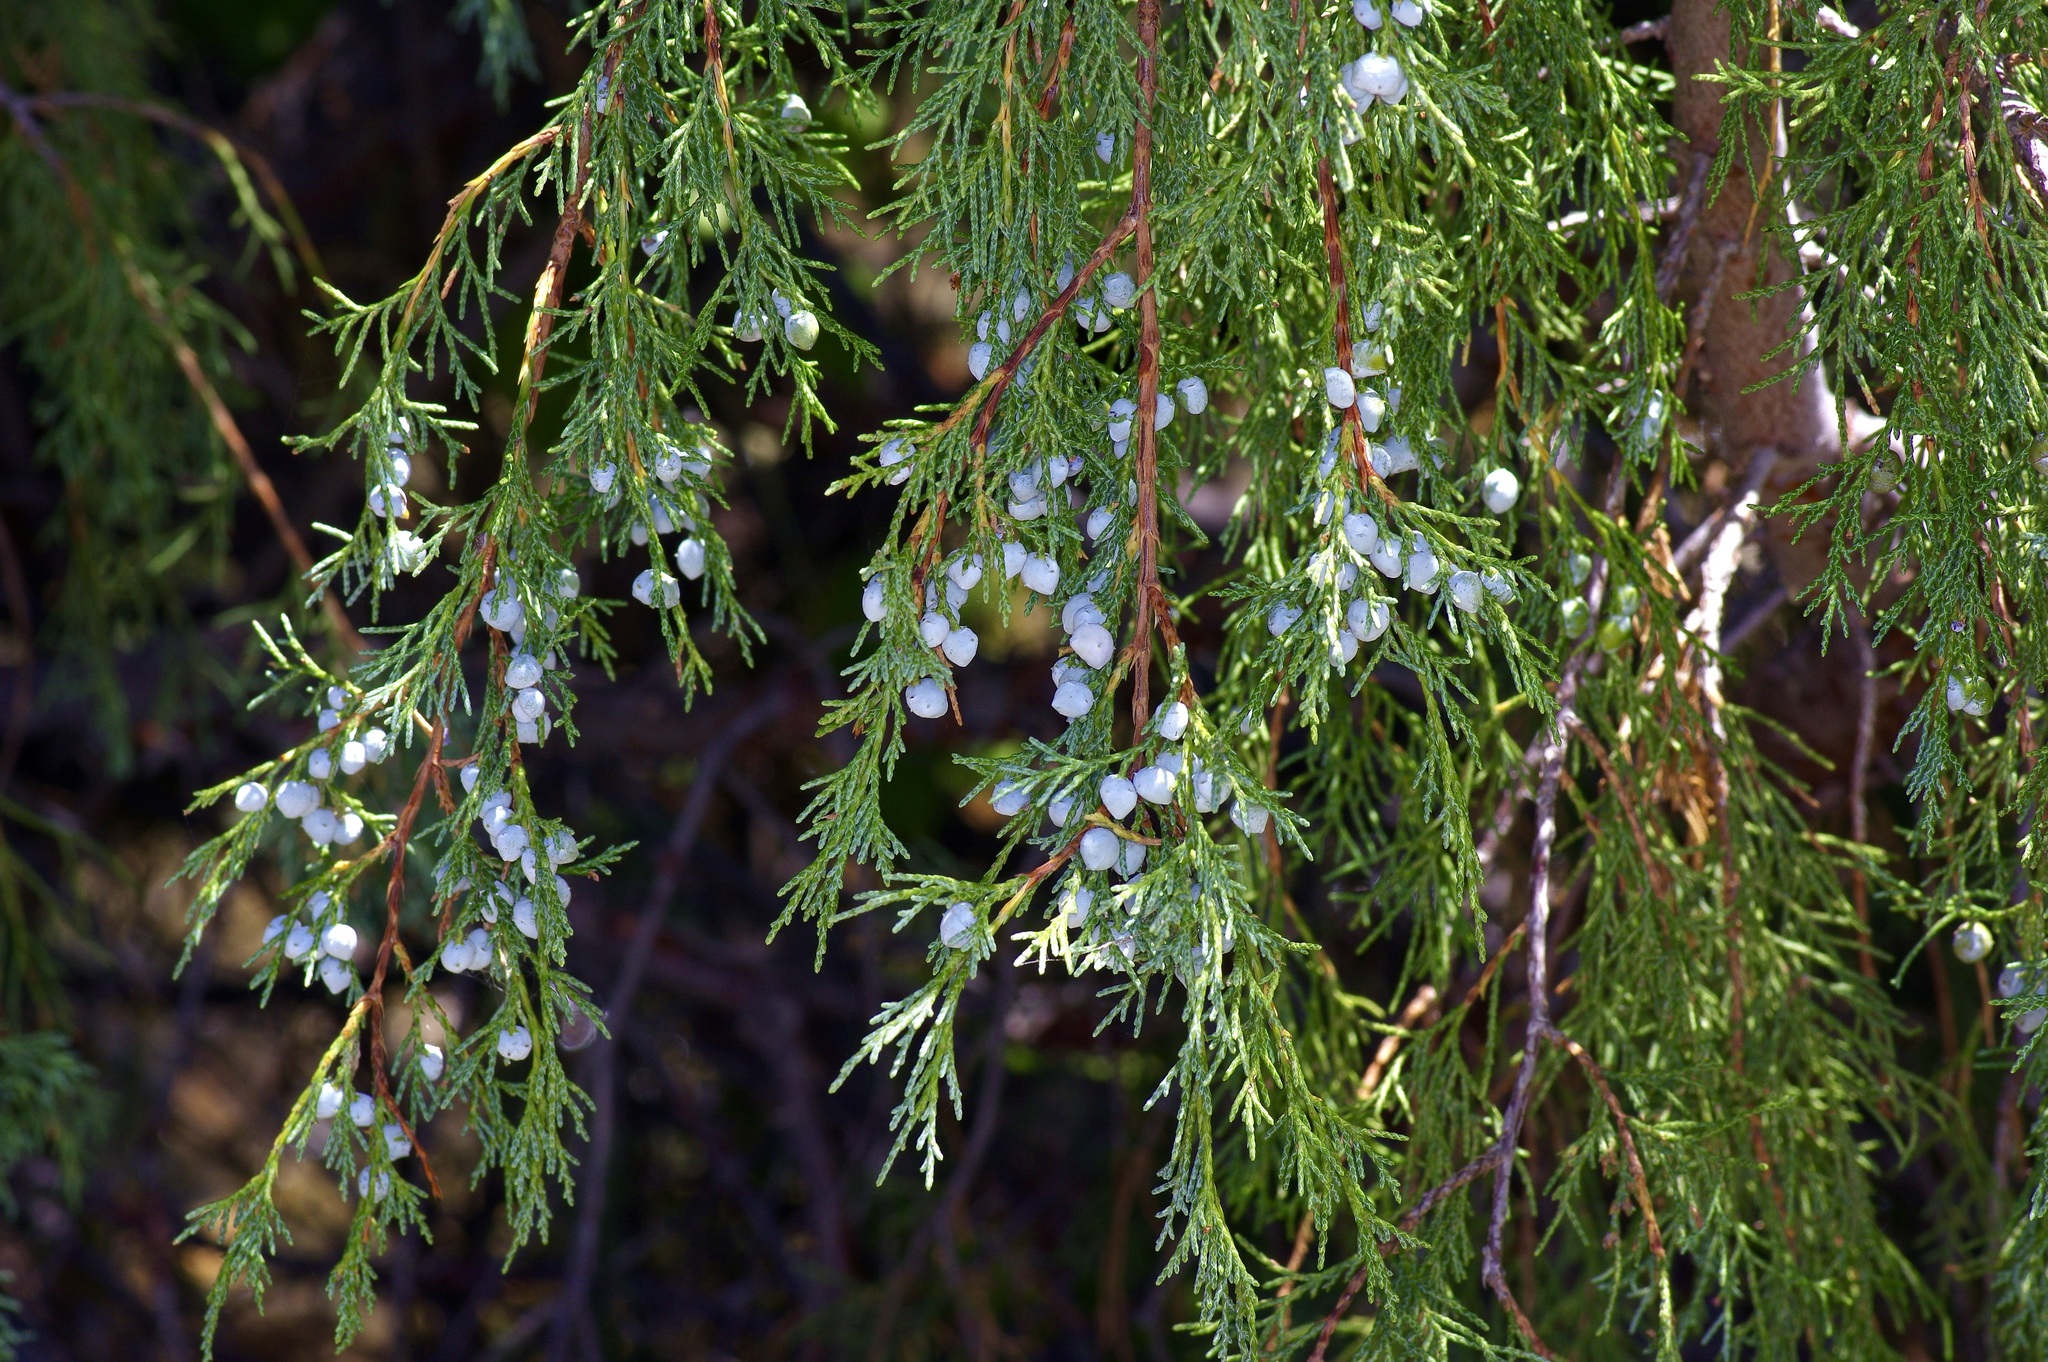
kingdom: Plantae
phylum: Tracheophyta
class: Pinopsida
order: Pinales
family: Cupressaceae
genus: Juniperus
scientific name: Juniperus scopulorum
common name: Rocky mountain juniper
